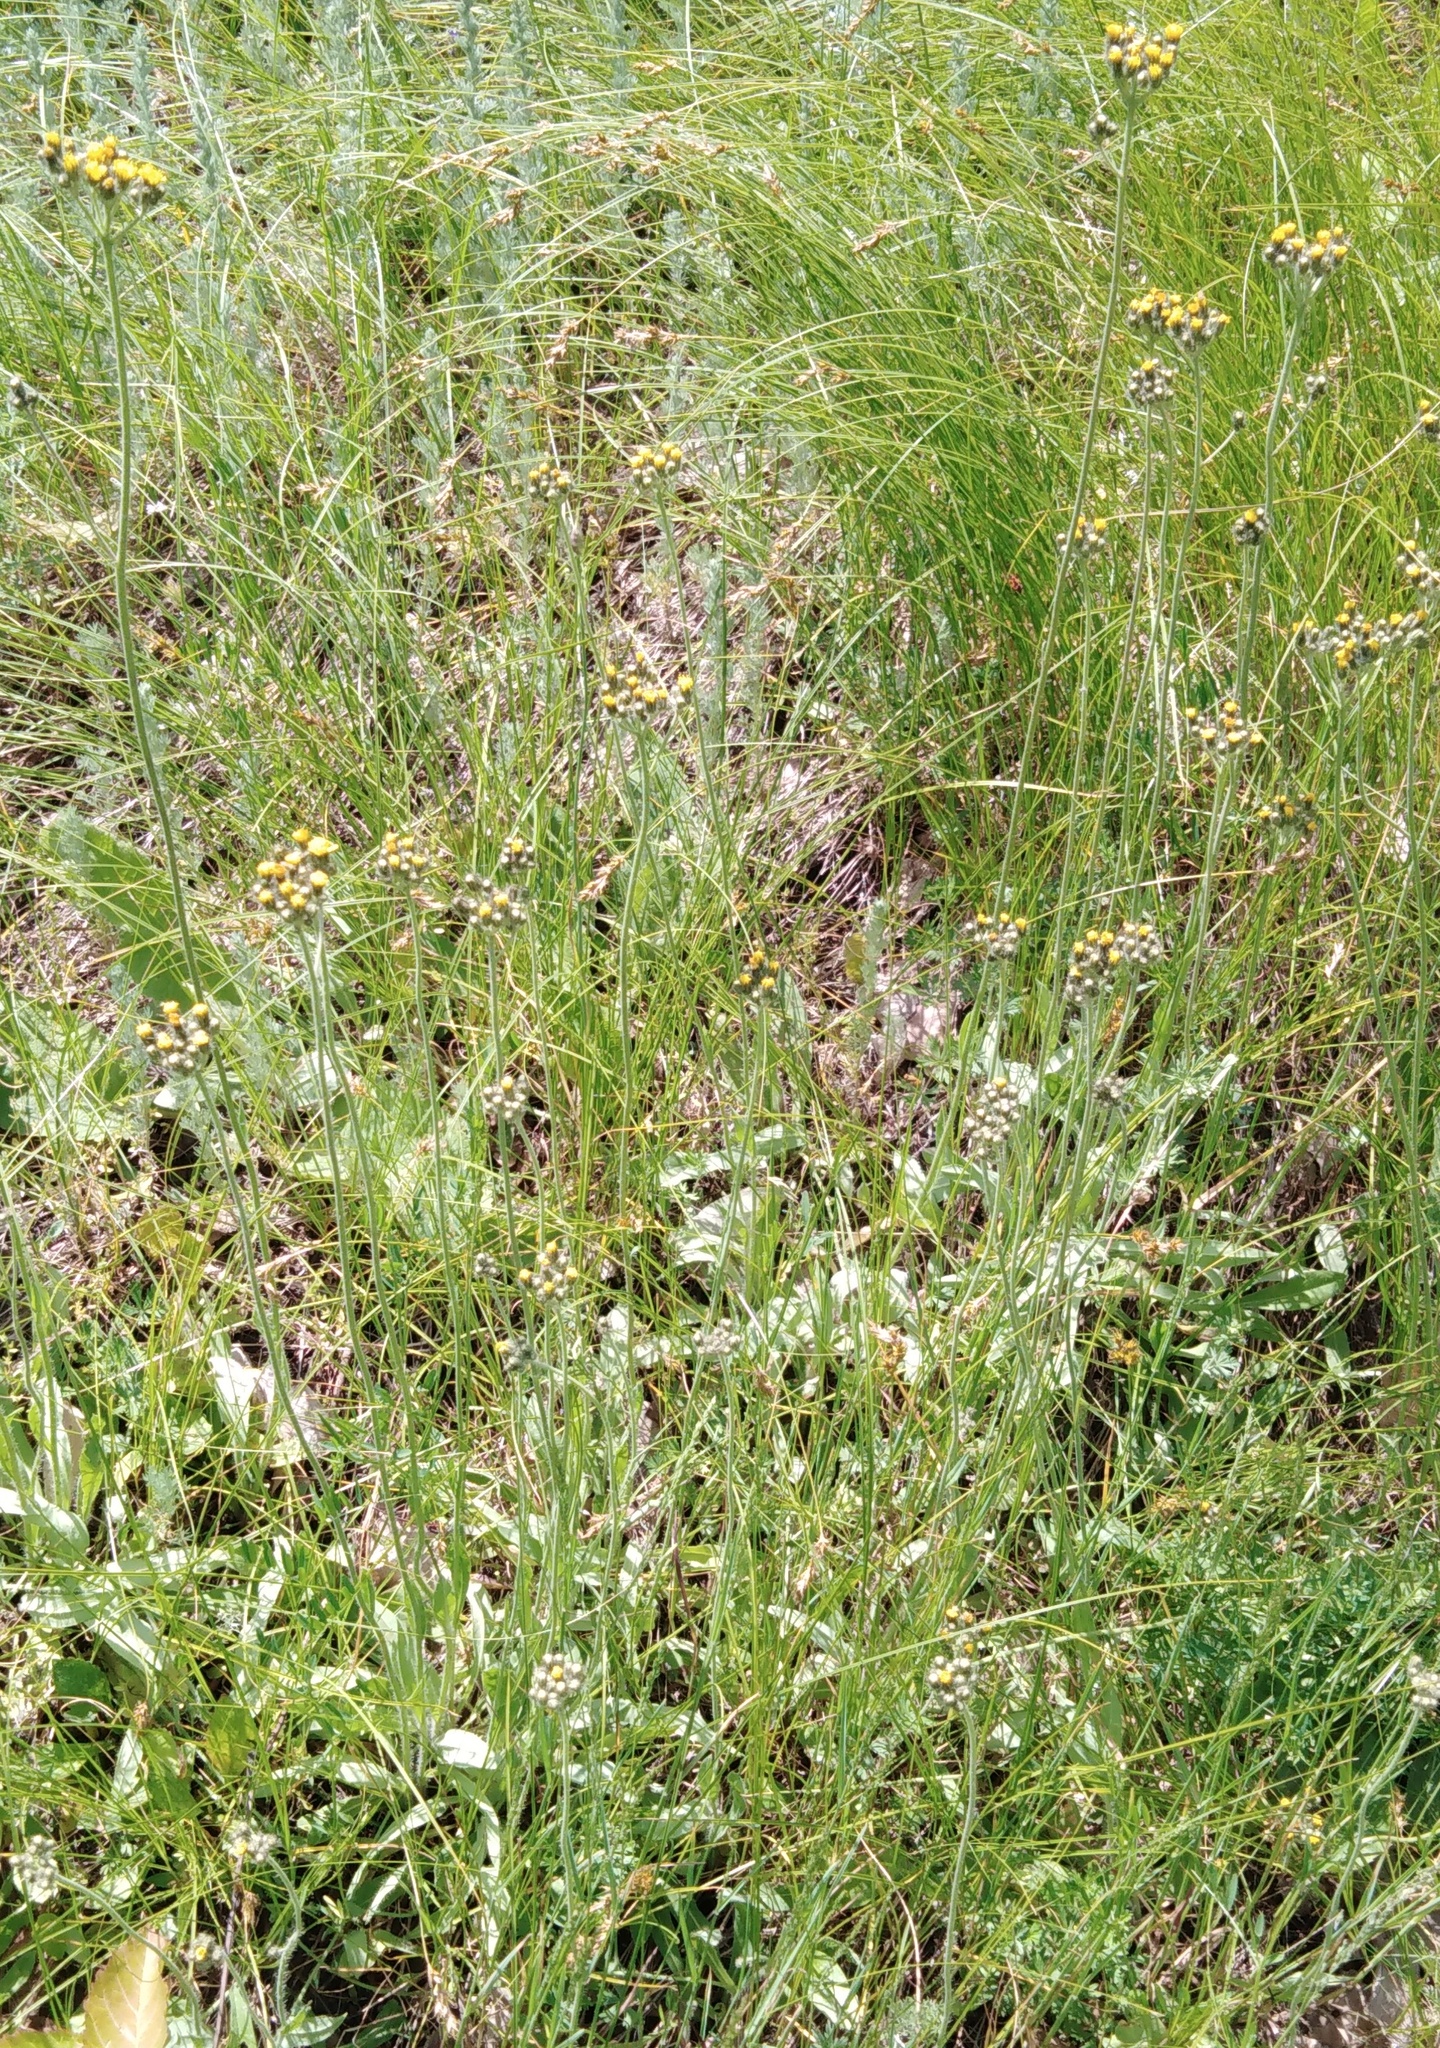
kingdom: Plantae
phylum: Tracheophyta
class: Magnoliopsida
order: Asterales
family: Asteraceae
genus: Pilosella
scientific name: Pilosella
